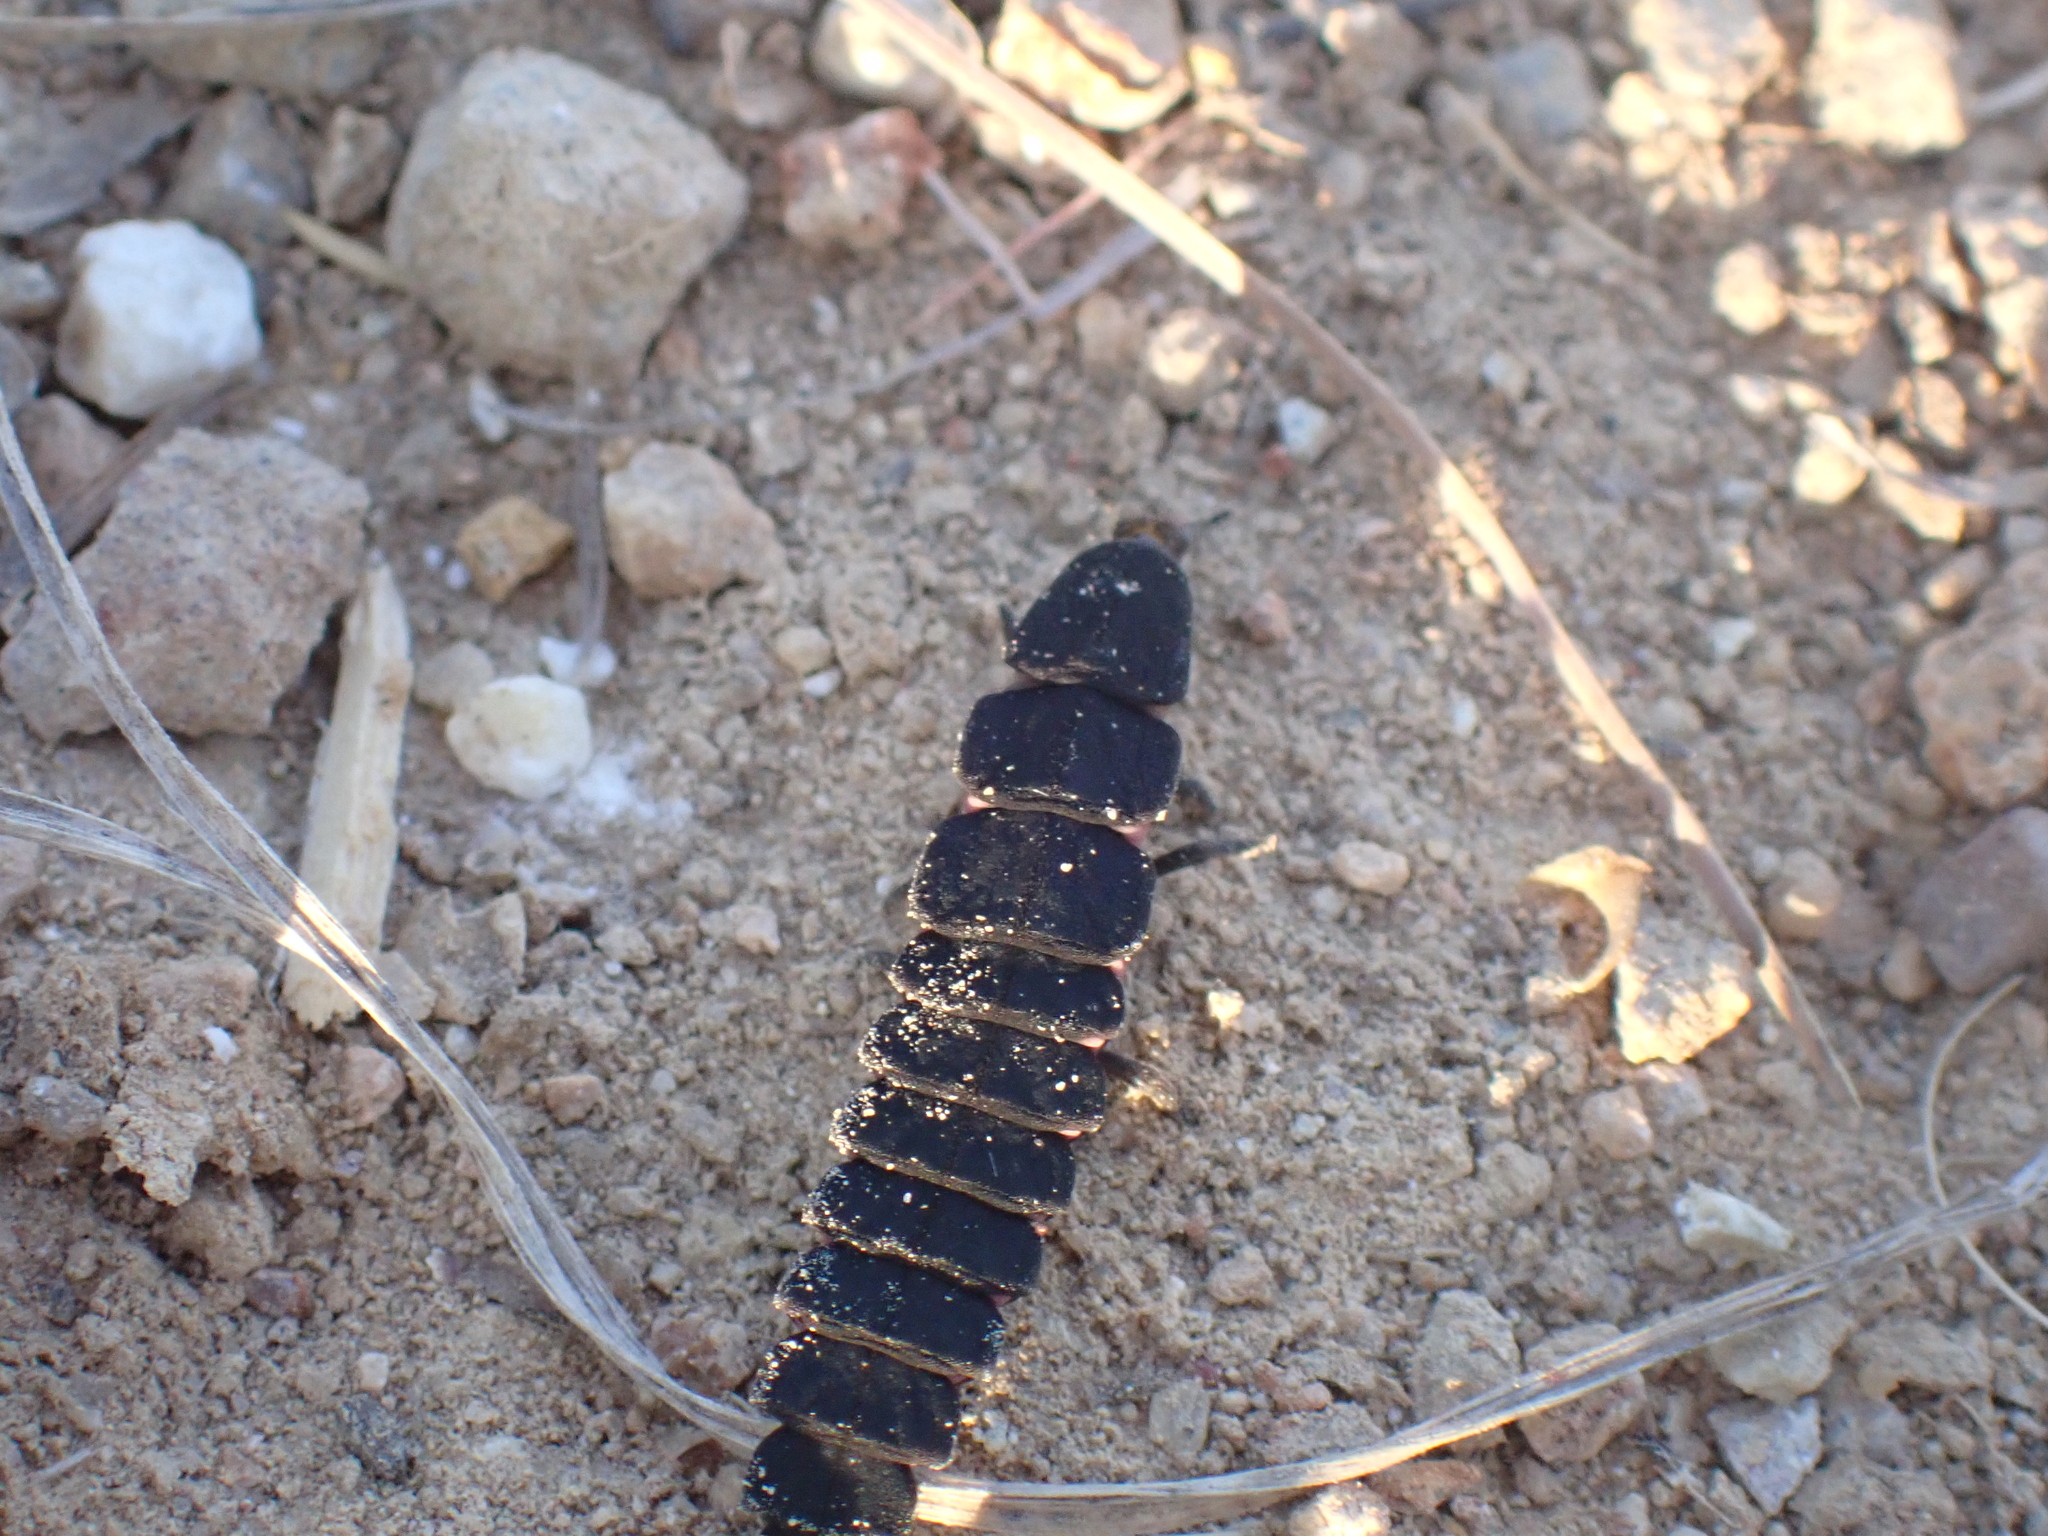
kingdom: Animalia
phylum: Arthropoda
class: Insecta
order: Coleoptera
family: Lampyridae
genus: Nyctophila
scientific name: Nyctophila reichii
